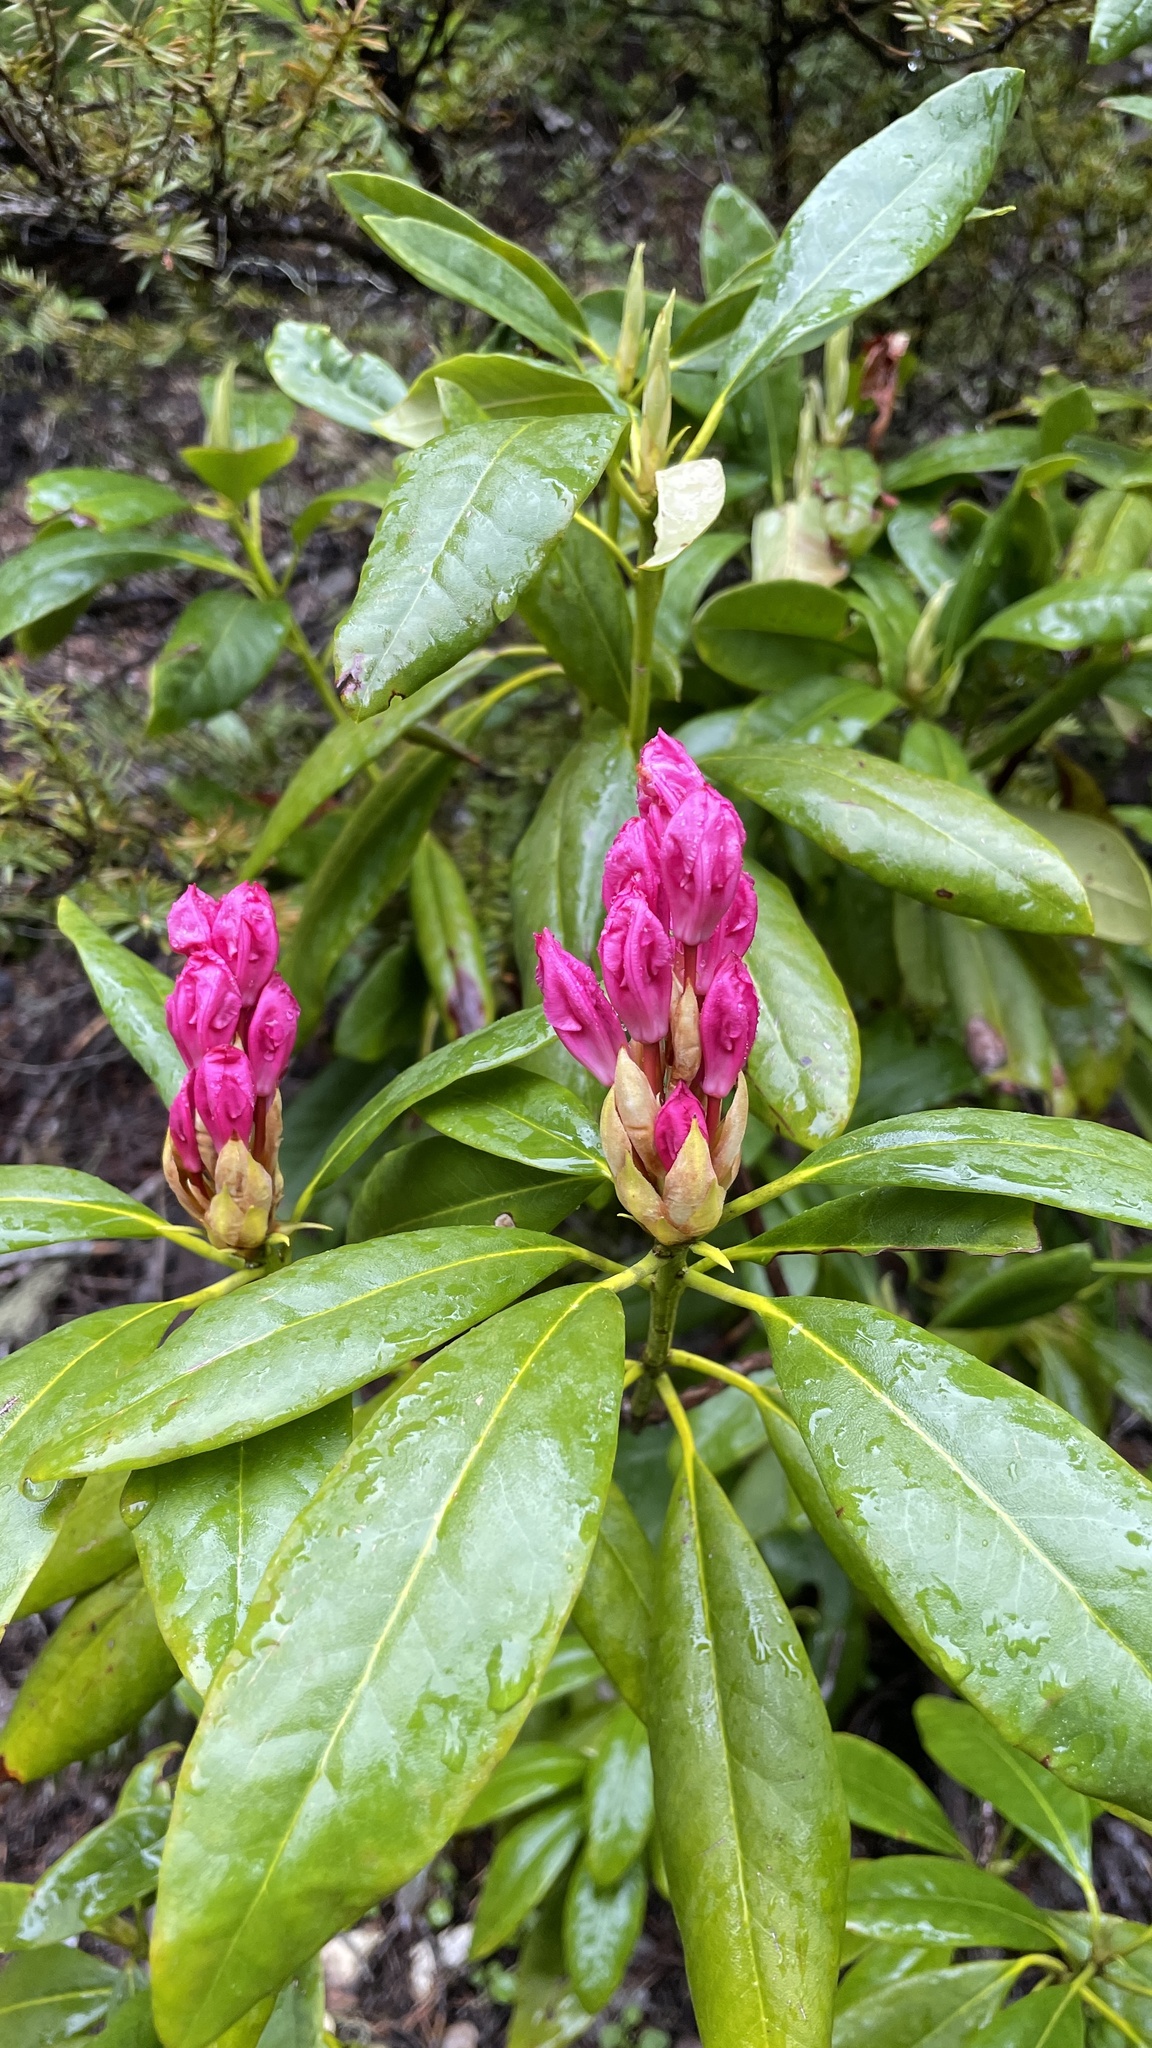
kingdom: Plantae
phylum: Tracheophyta
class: Magnoliopsida
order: Ericales
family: Ericaceae
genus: Rhododendron
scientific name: Rhododendron macrophyllum
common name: California rose bay
